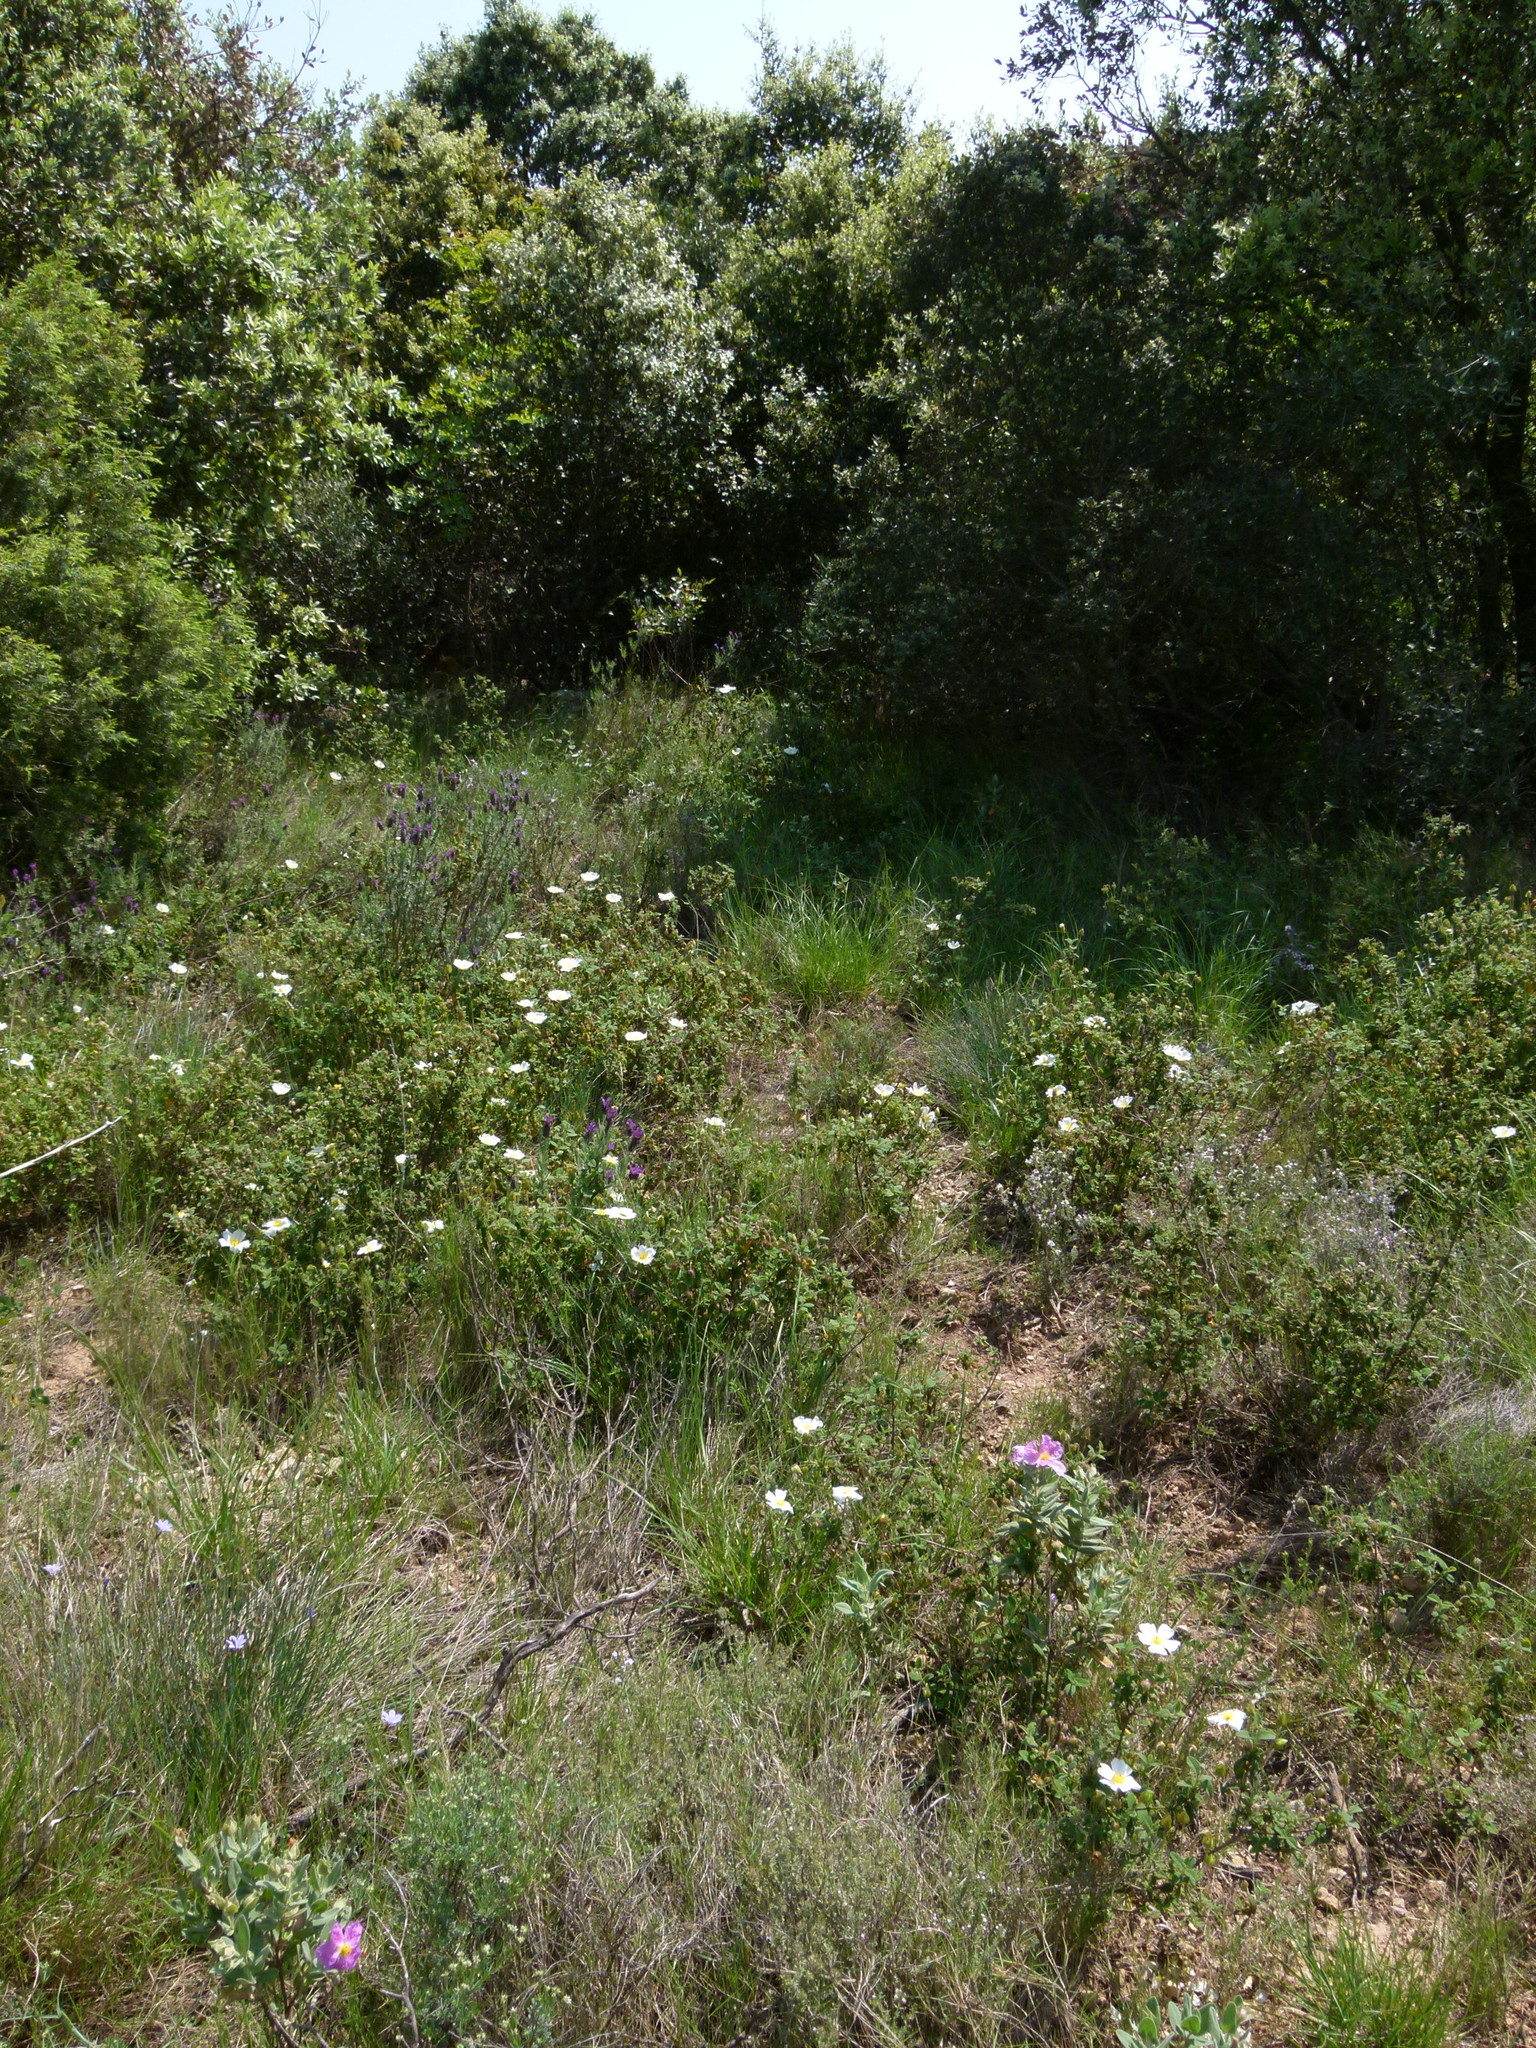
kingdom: Plantae
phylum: Tracheophyta
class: Magnoliopsida
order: Malvales
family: Cistaceae
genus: Cistus
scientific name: Cistus salviifolius
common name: Salvia cistus
